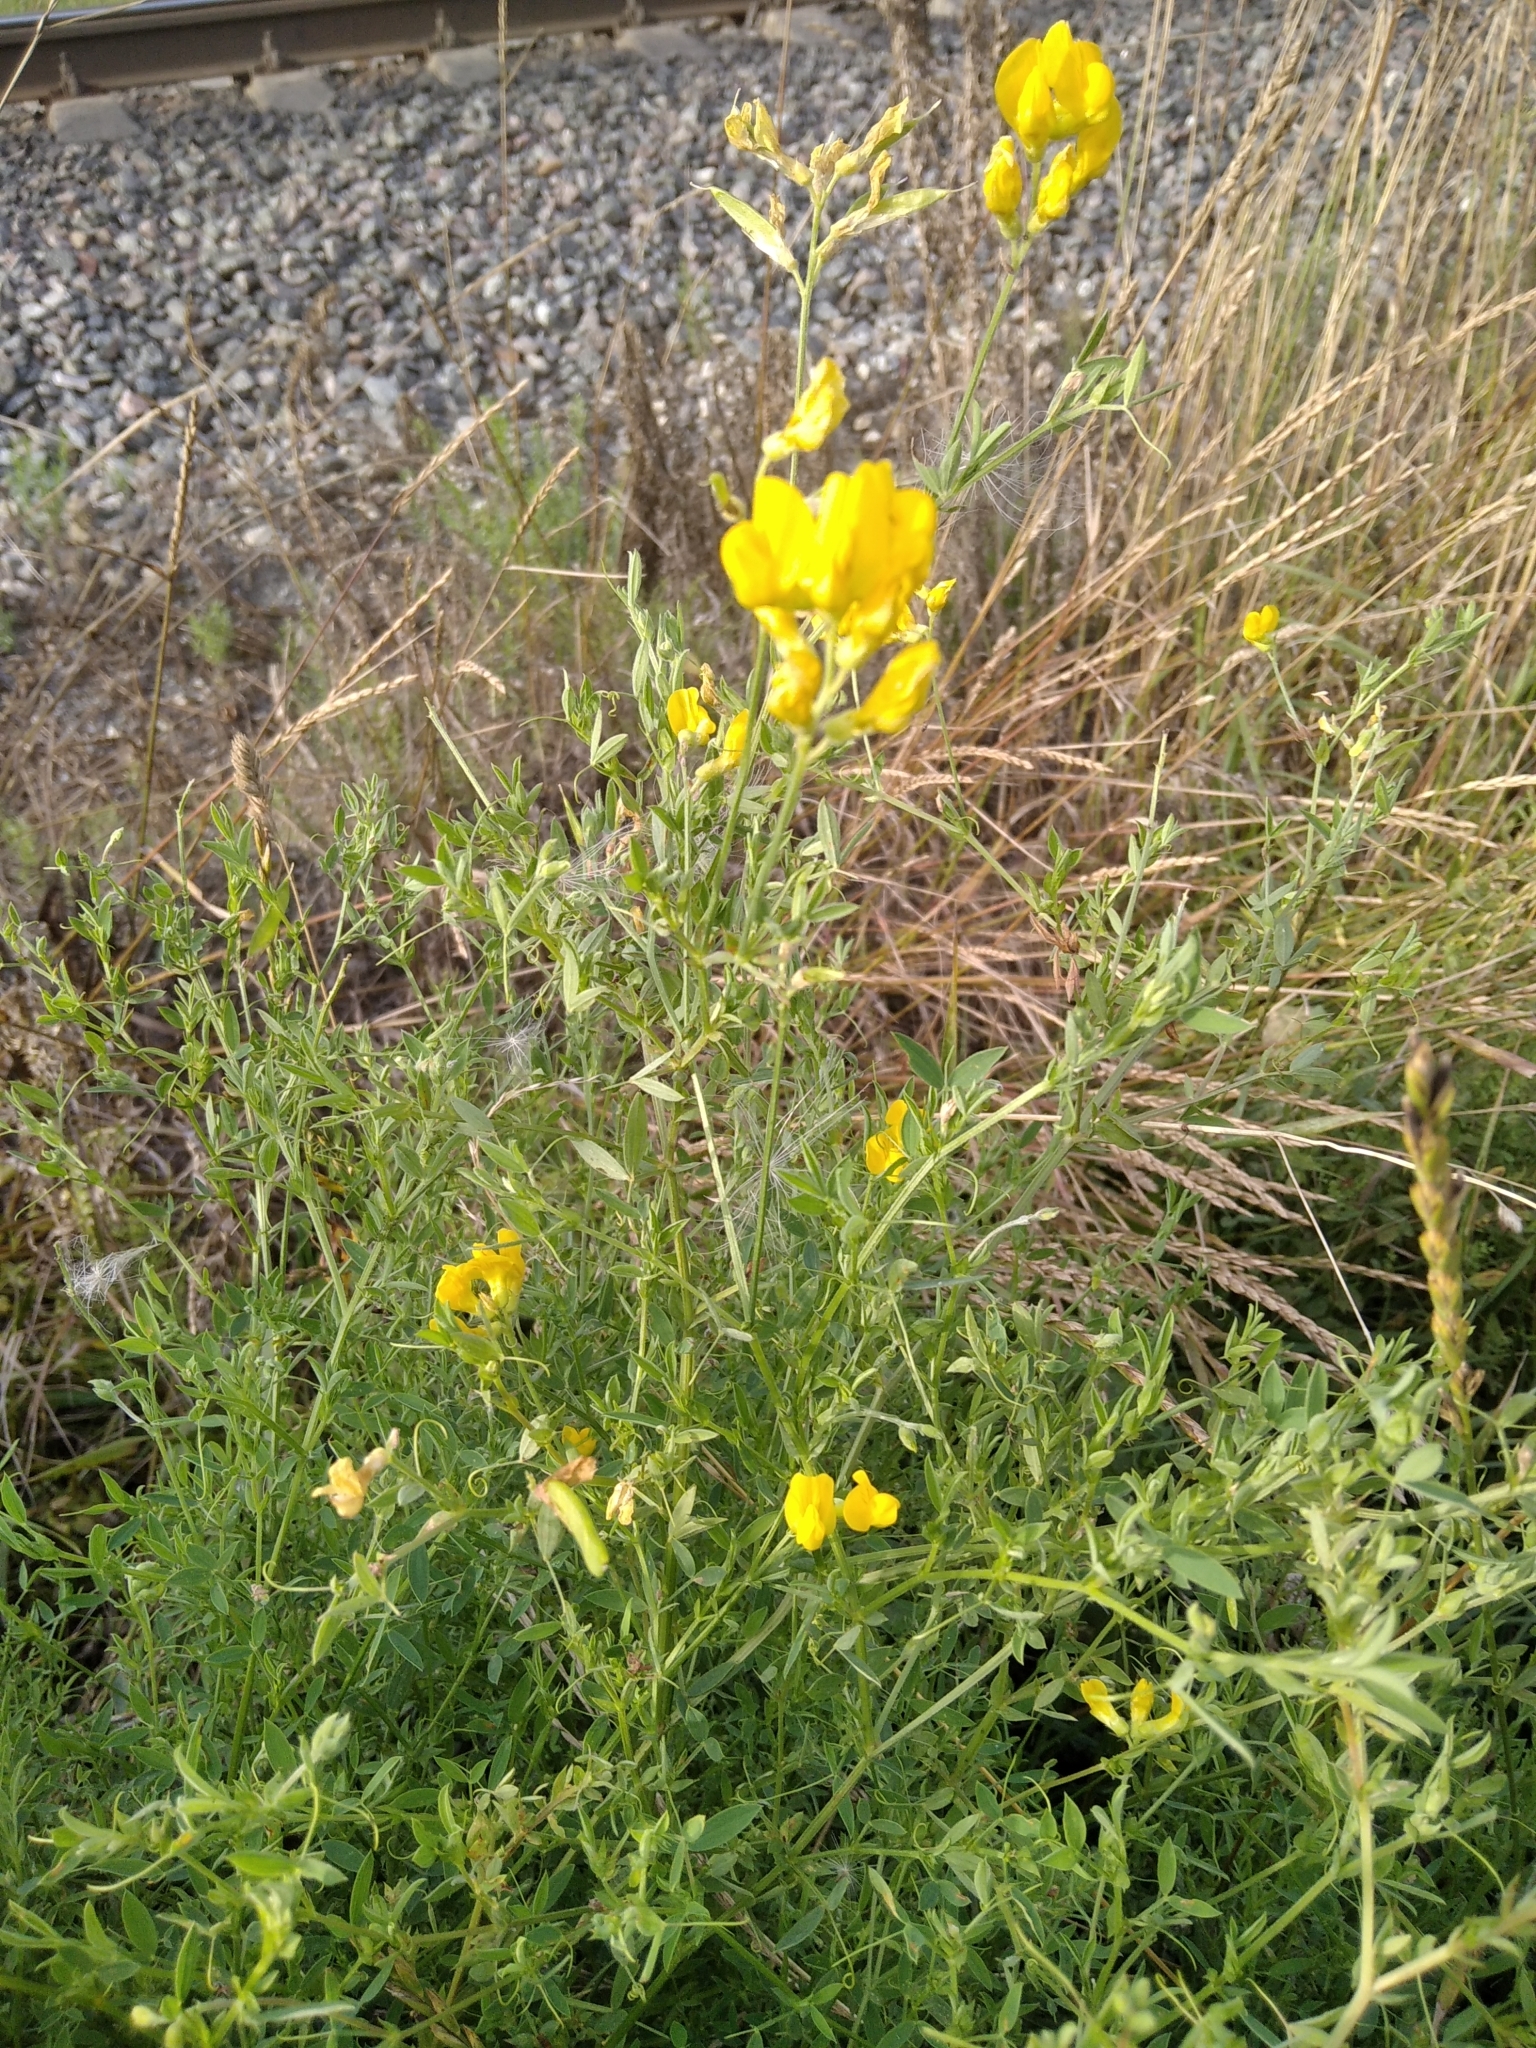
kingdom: Plantae
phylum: Tracheophyta
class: Magnoliopsida
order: Fabales
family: Fabaceae
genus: Lathyrus
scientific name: Lathyrus pratensis
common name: Meadow vetchling
